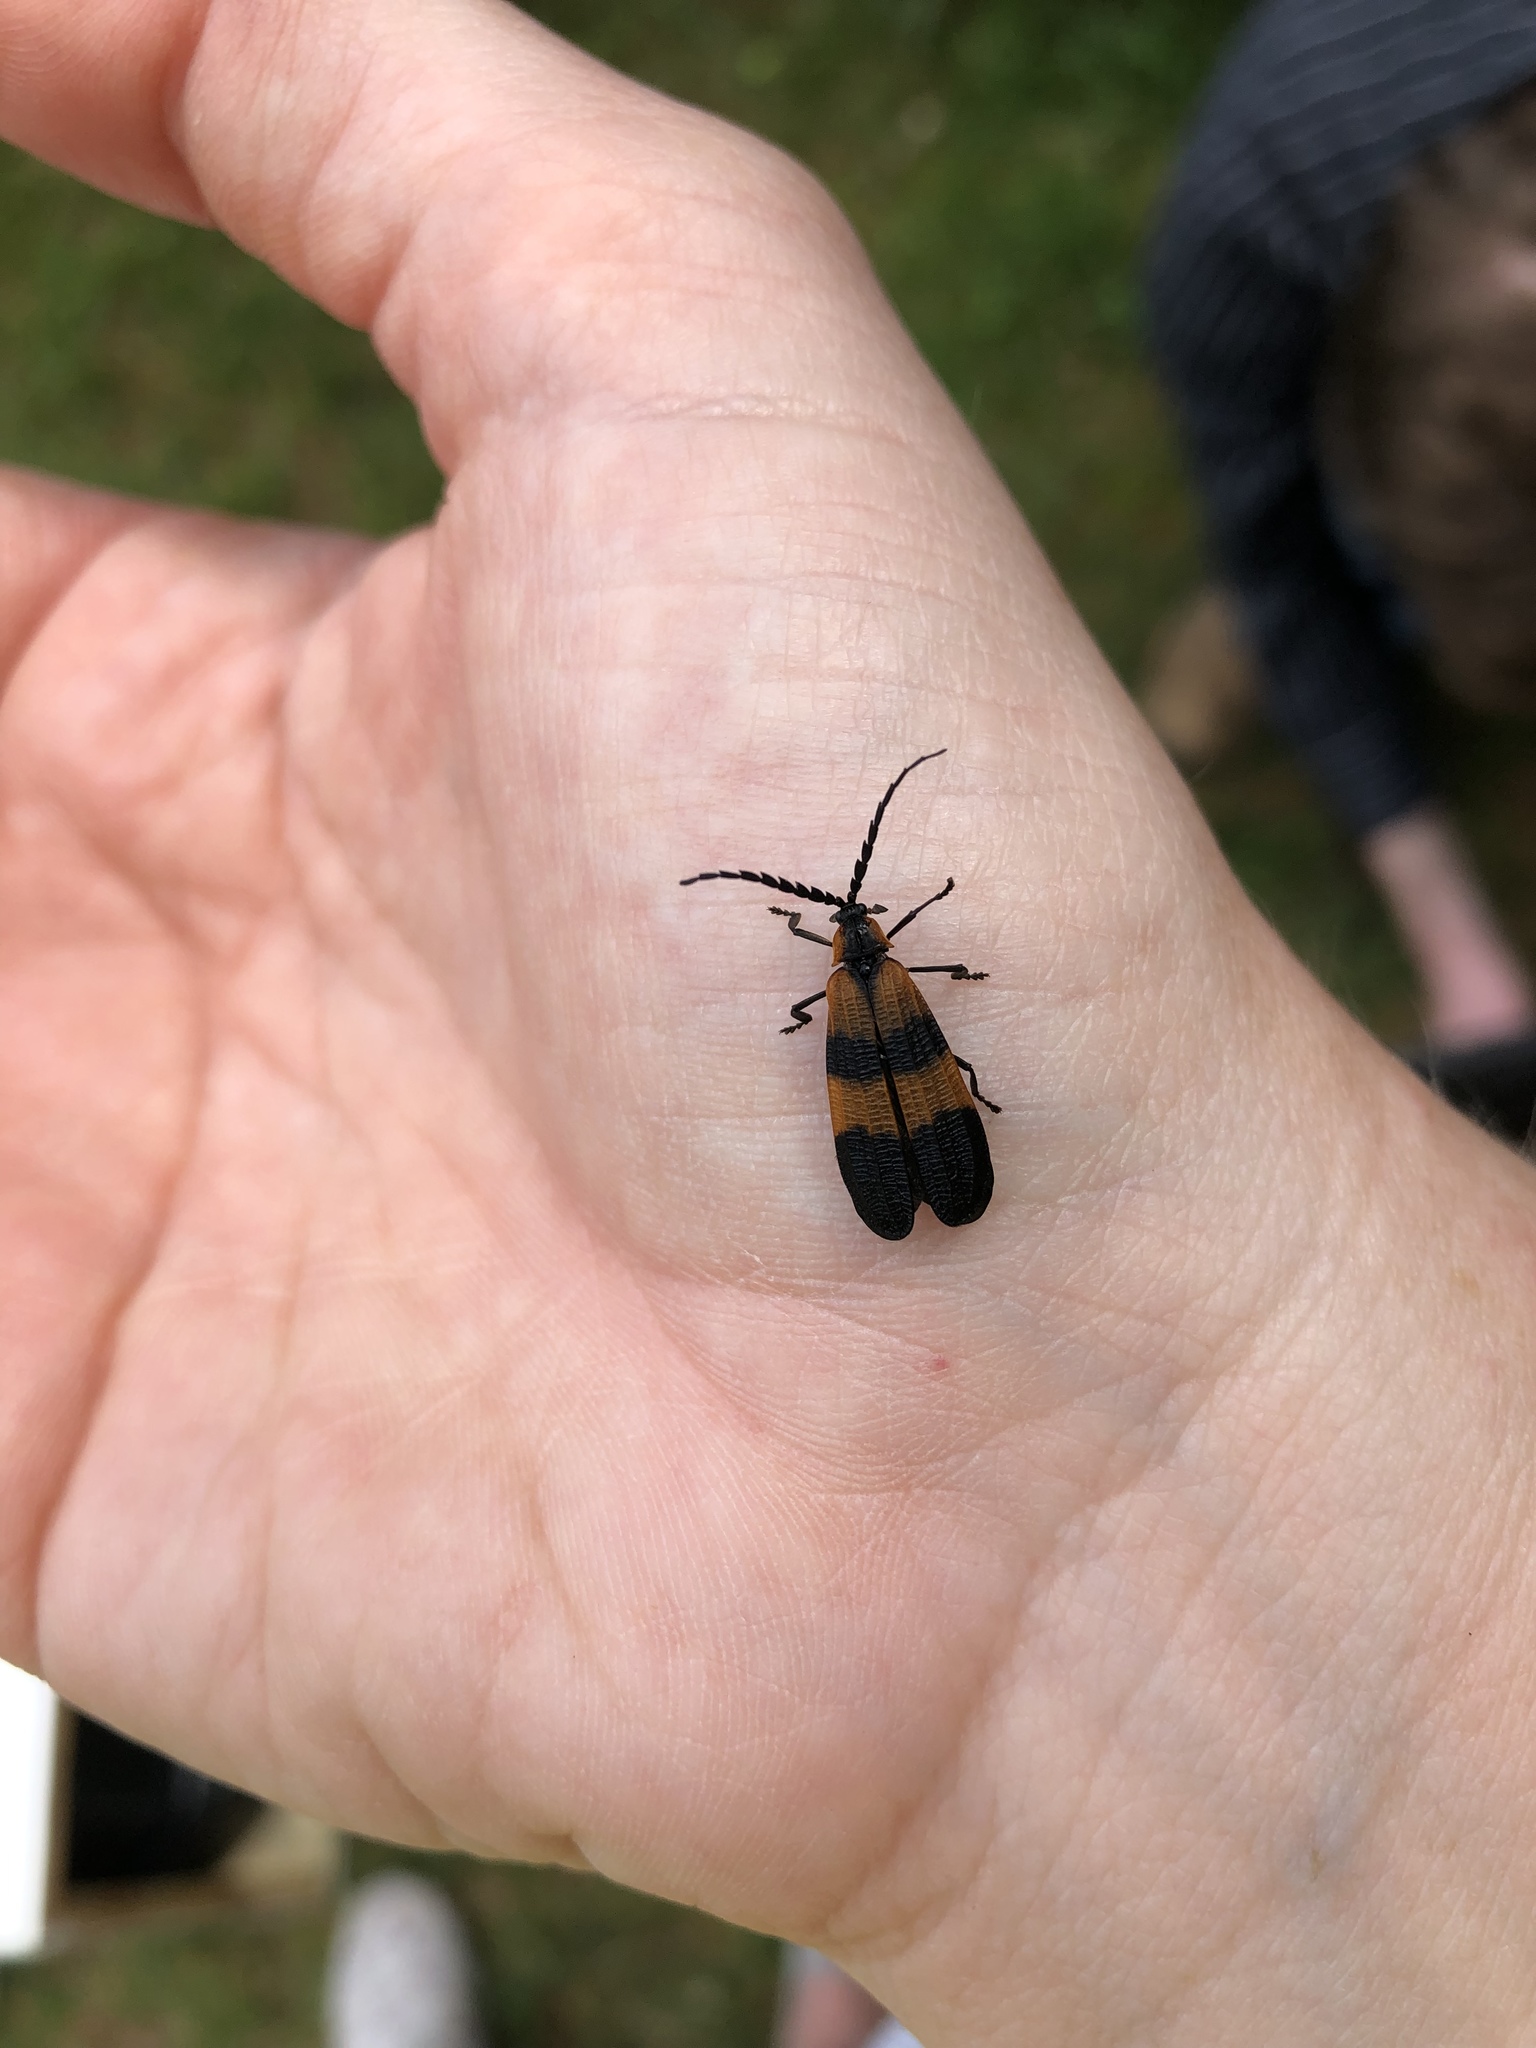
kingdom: Animalia
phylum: Arthropoda
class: Insecta
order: Coleoptera
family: Lycidae
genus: Calopteron
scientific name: Calopteron discrepans
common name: Banded net-winged beetle
